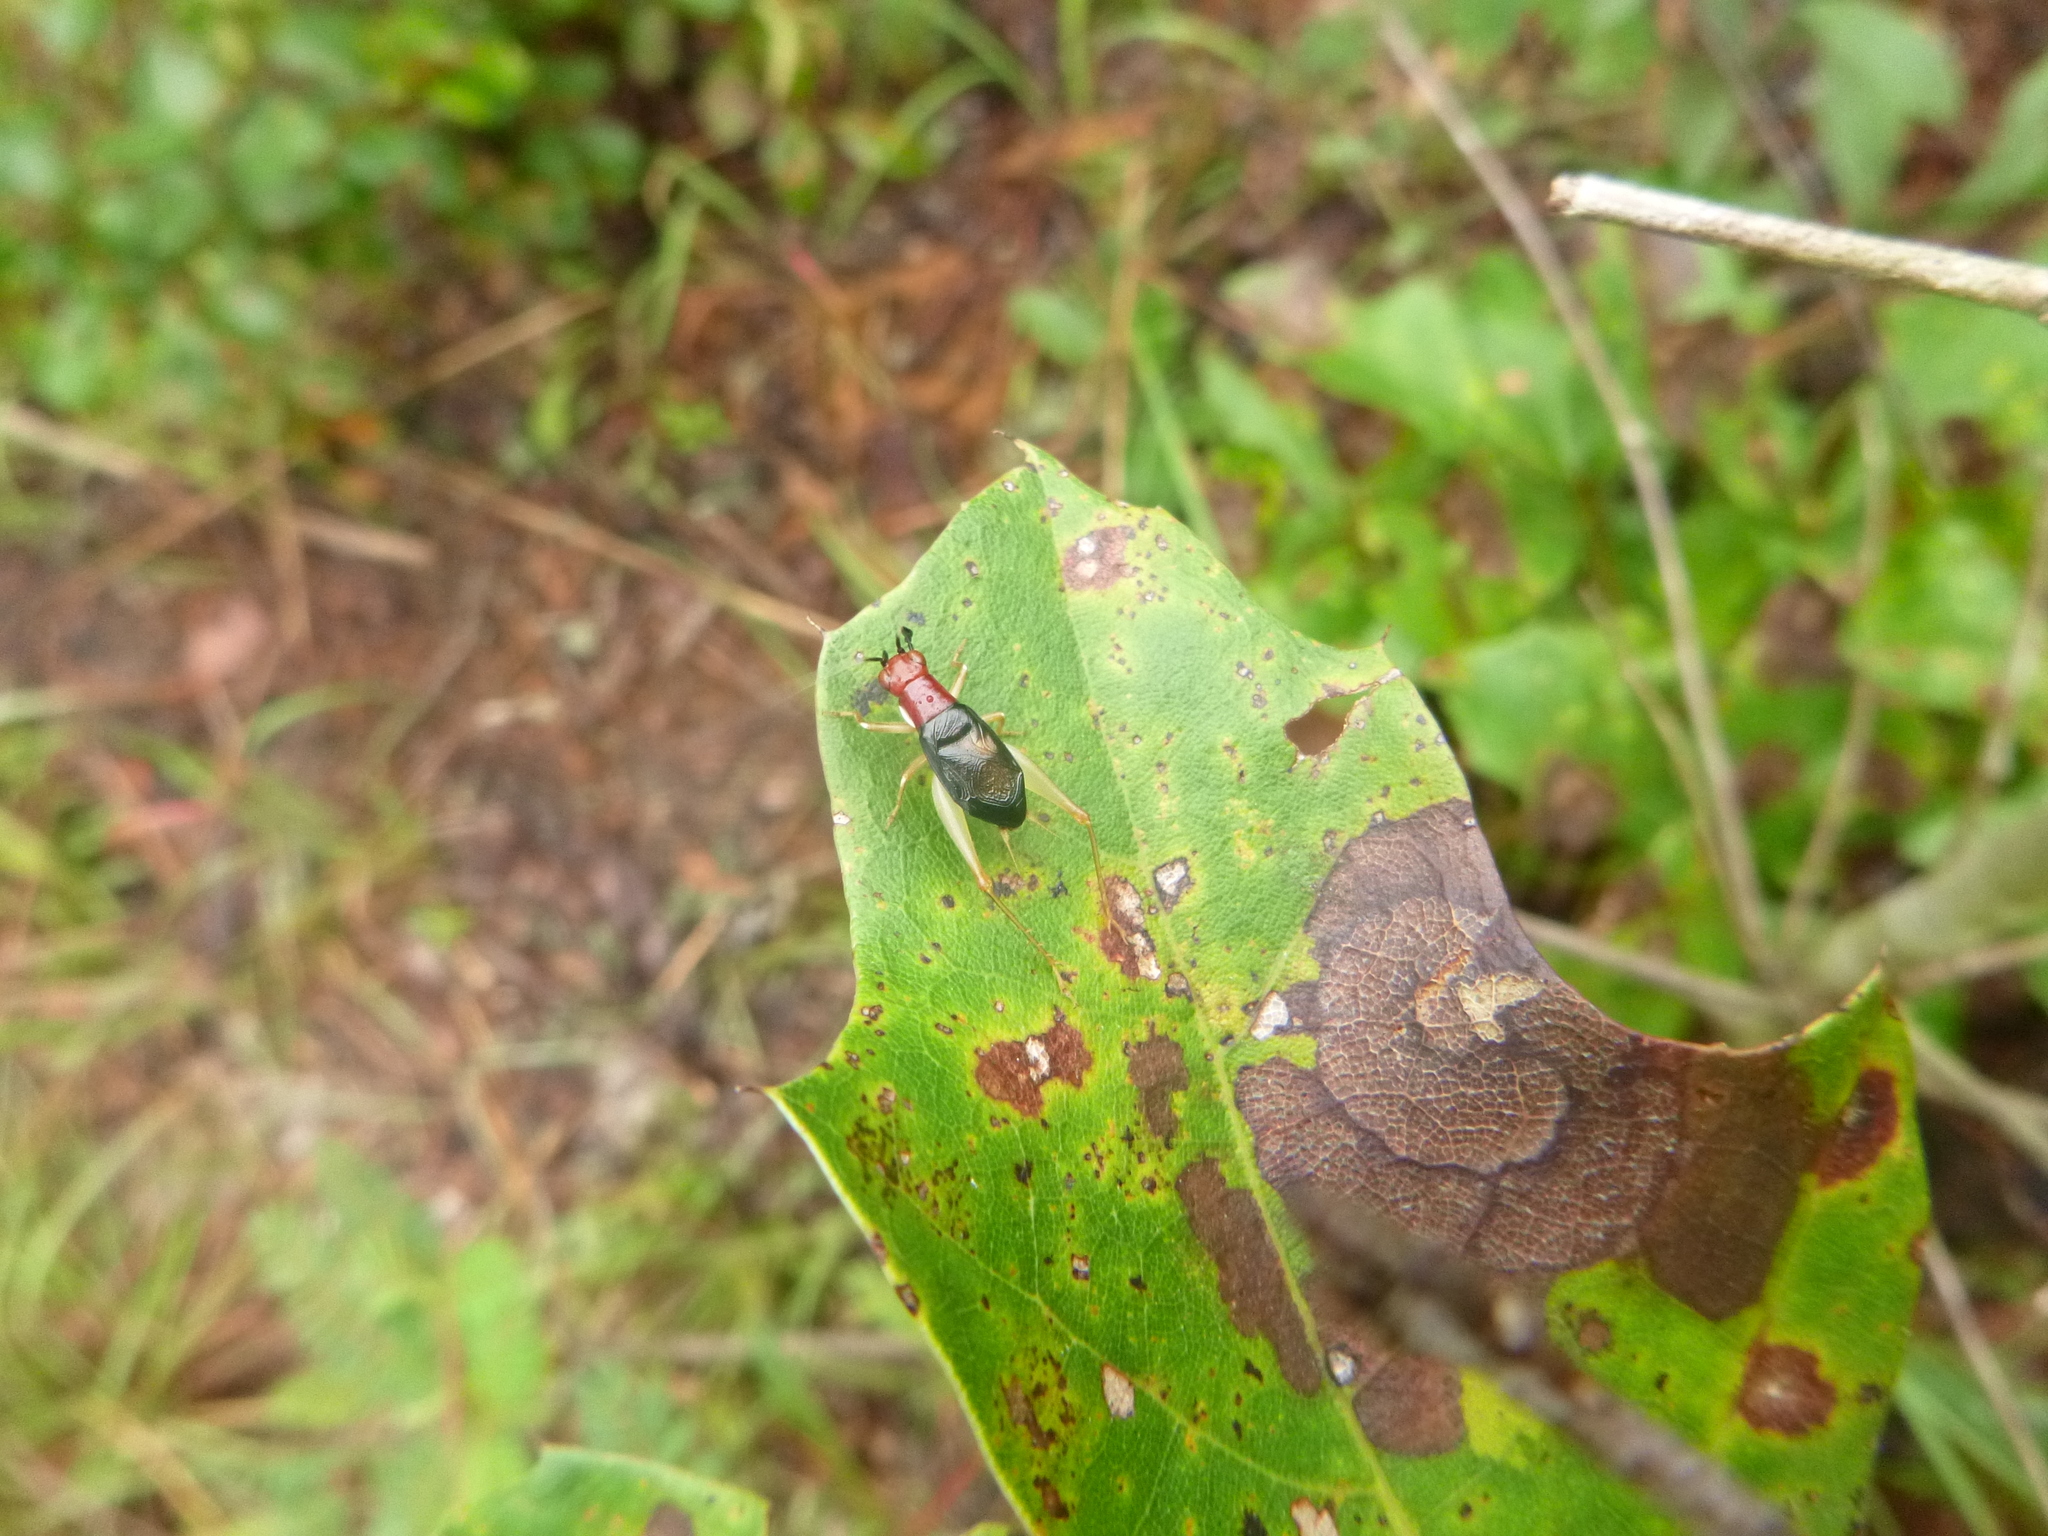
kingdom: Animalia
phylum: Arthropoda
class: Insecta
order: Orthoptera
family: Trigonidiidae
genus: Phyllopalpus
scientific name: Phyllopalpus pulchellus
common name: Handsome trig
